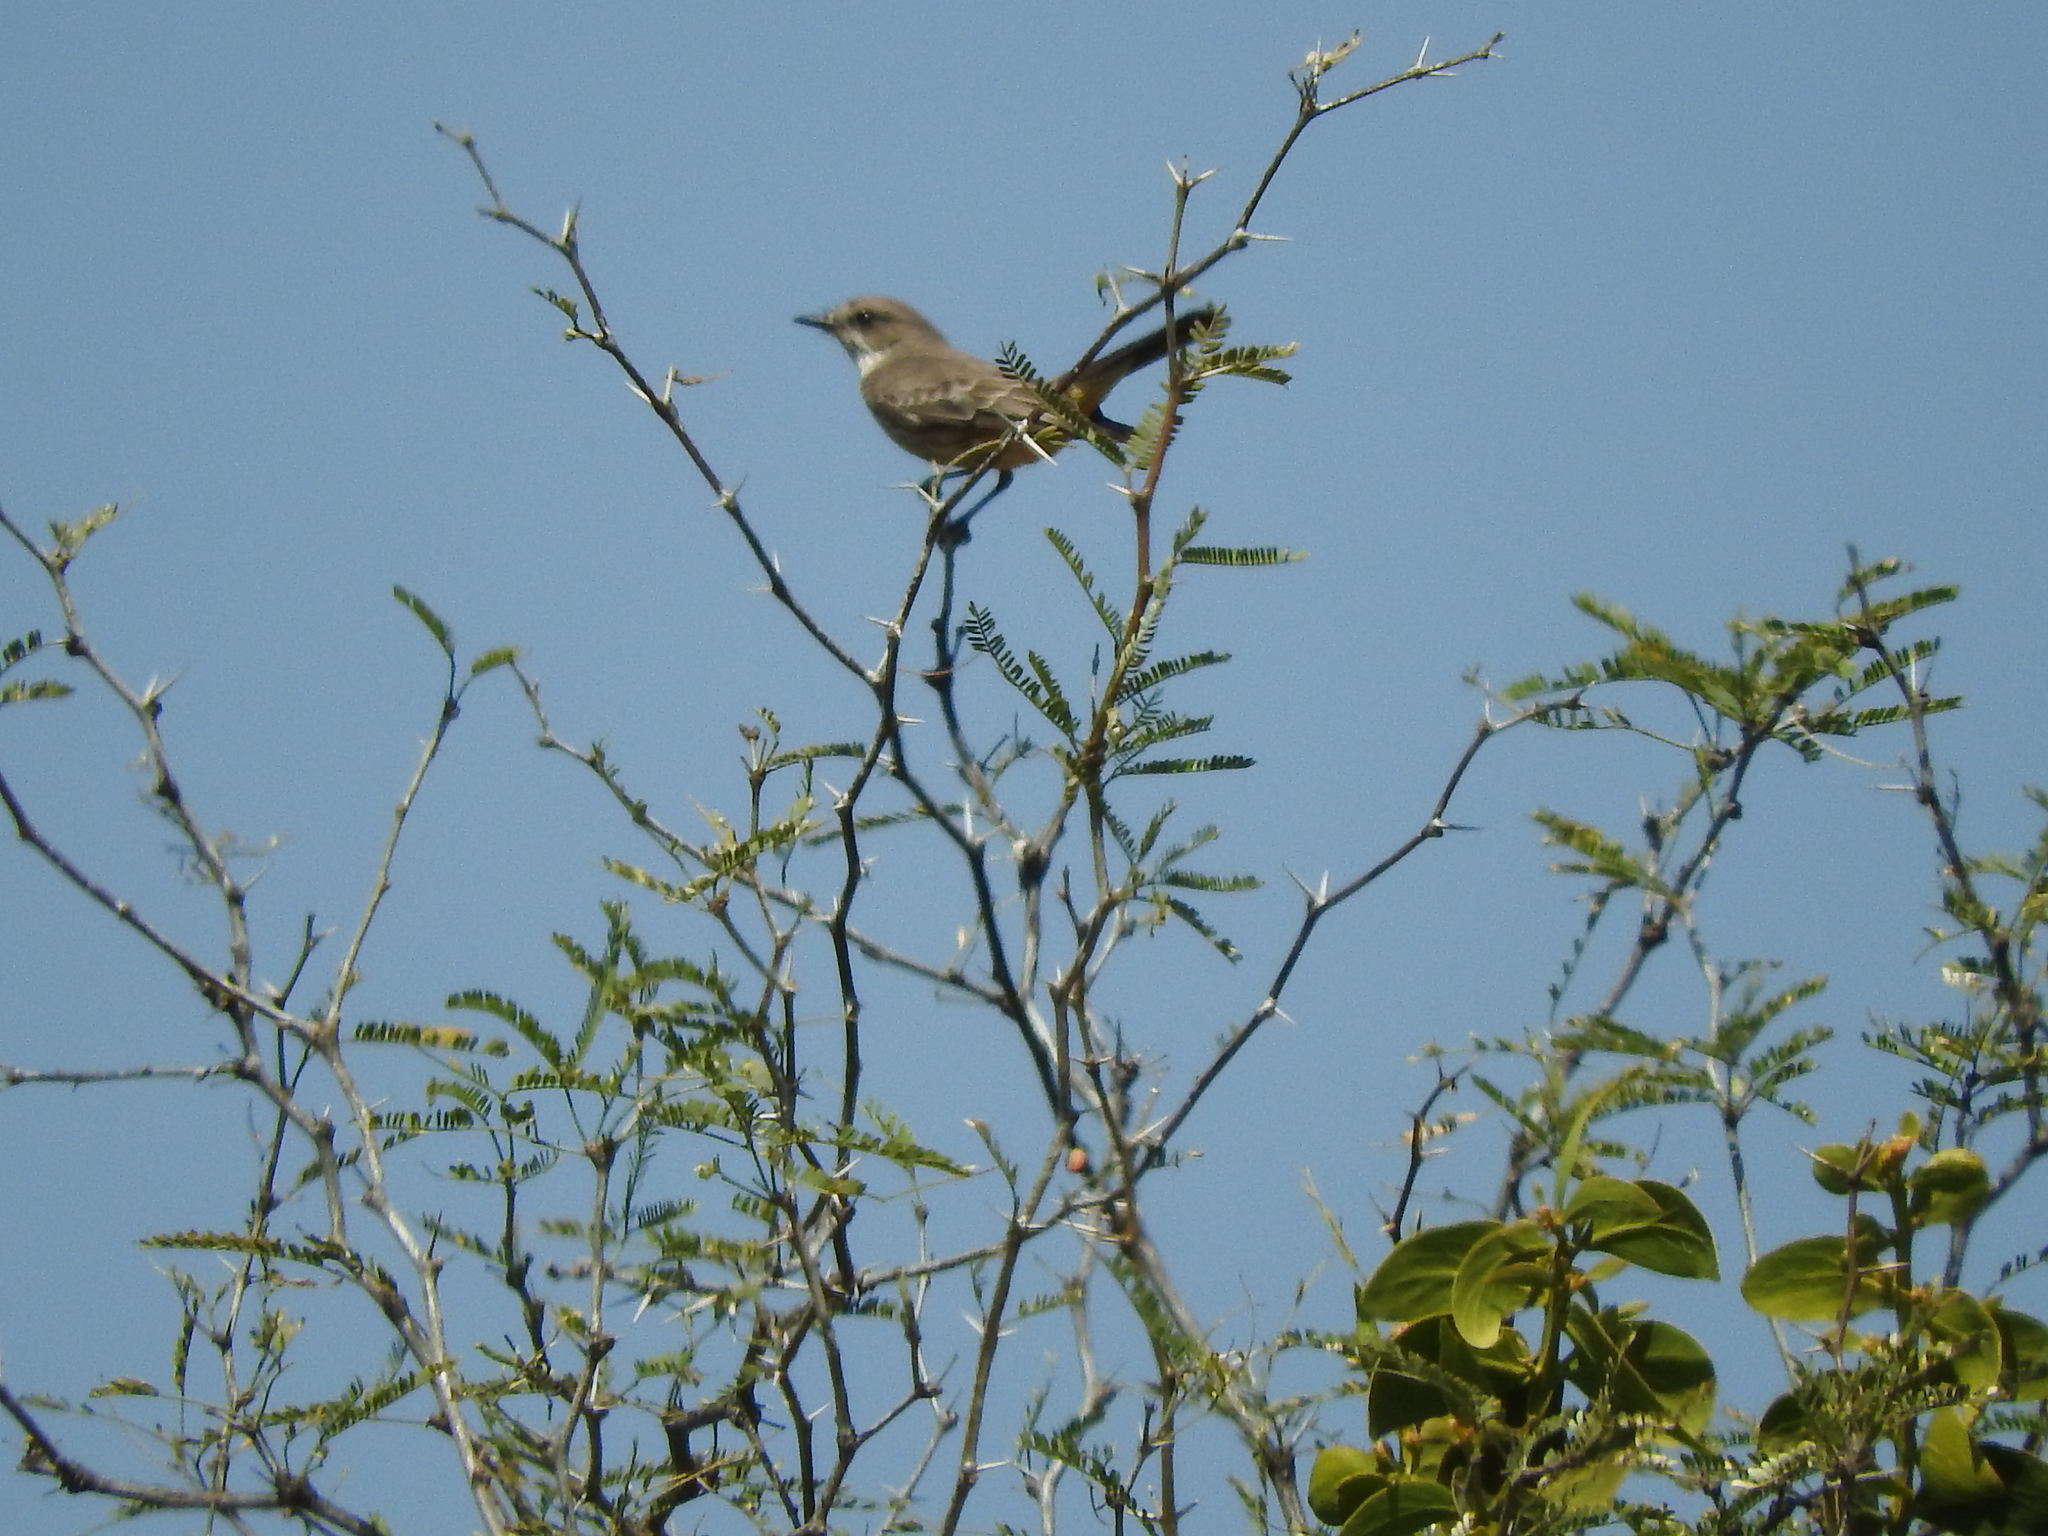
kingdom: Animalia
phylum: Chordata
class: Aves
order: Passeriformes
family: Tyrannidae
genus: Pyrocephalus
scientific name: Pyrocephalus rubinus
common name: Vermilion flycatcher
